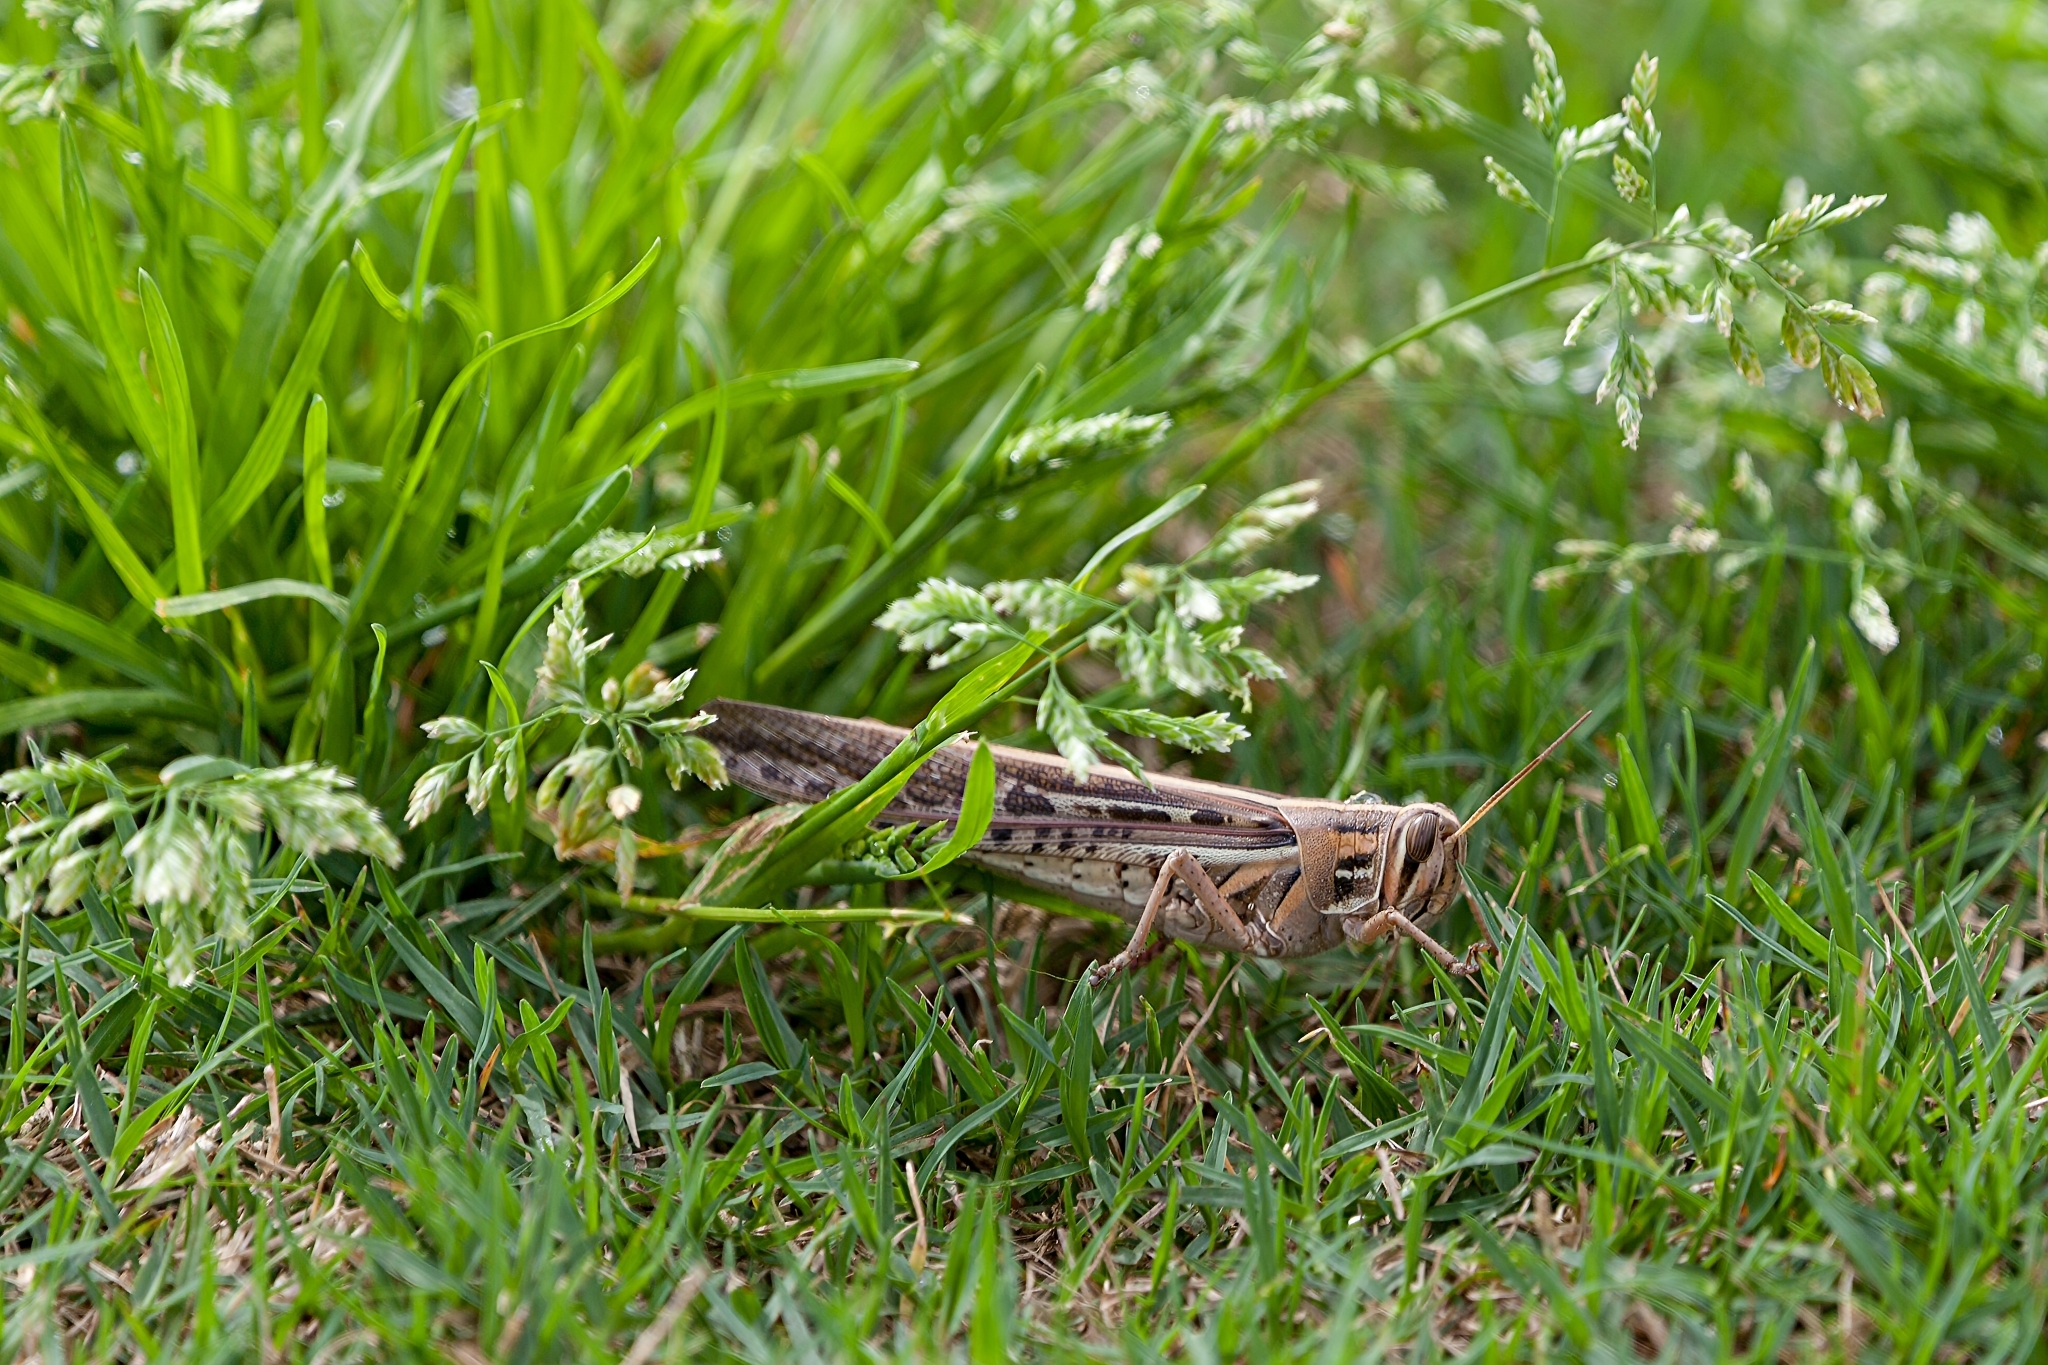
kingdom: Animalia
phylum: Arthropoda
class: Insecta
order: Orthoptera
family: Acrididae
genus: Schistocerca
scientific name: Schistocerca americana
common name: American bird locust
